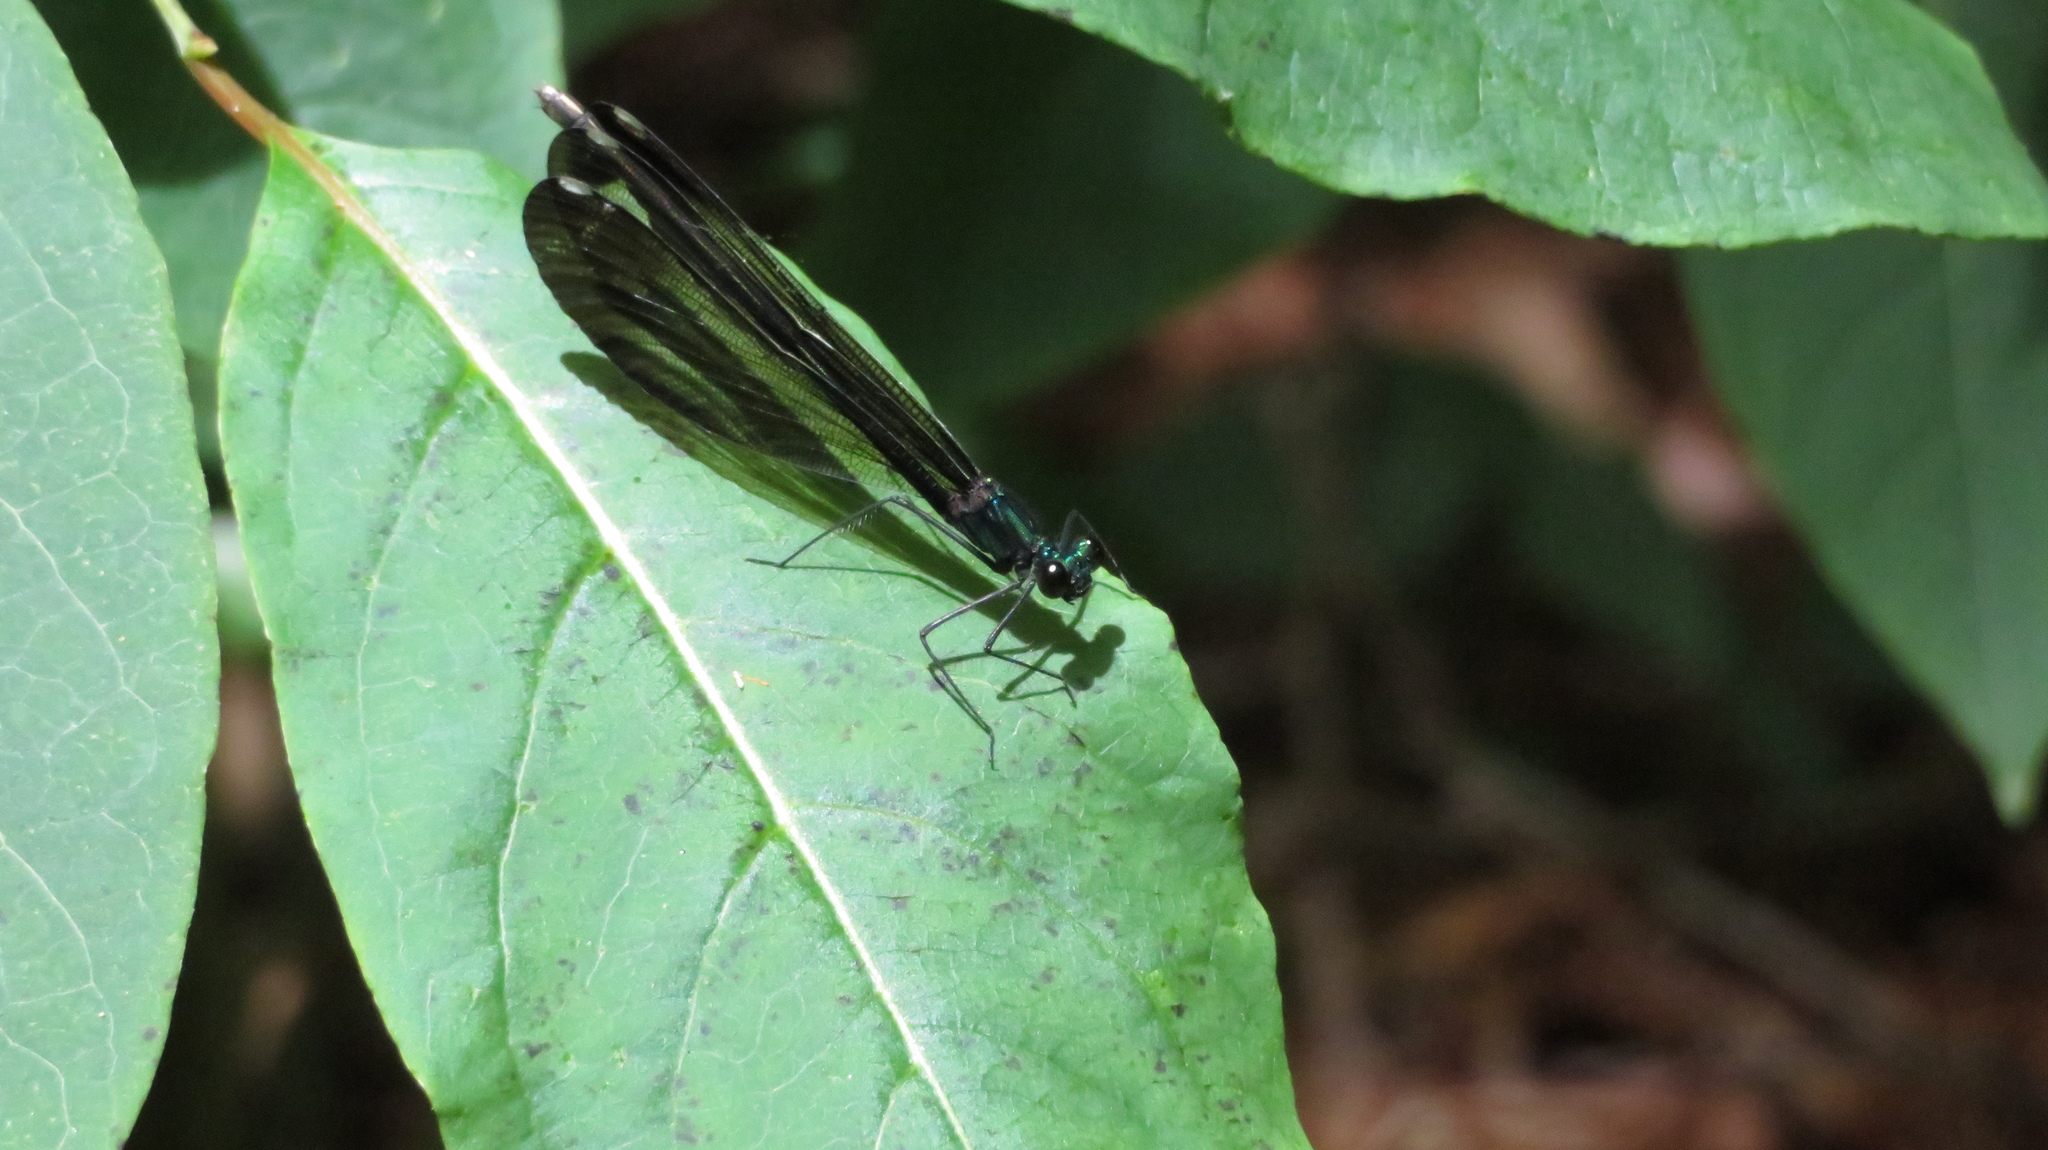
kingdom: Animalia
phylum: Arthropoda
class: Insecta
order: Odonata
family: Calopterygidae
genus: Calopteryx
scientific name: Calopteryx maculata
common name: Ebony jewelwing
